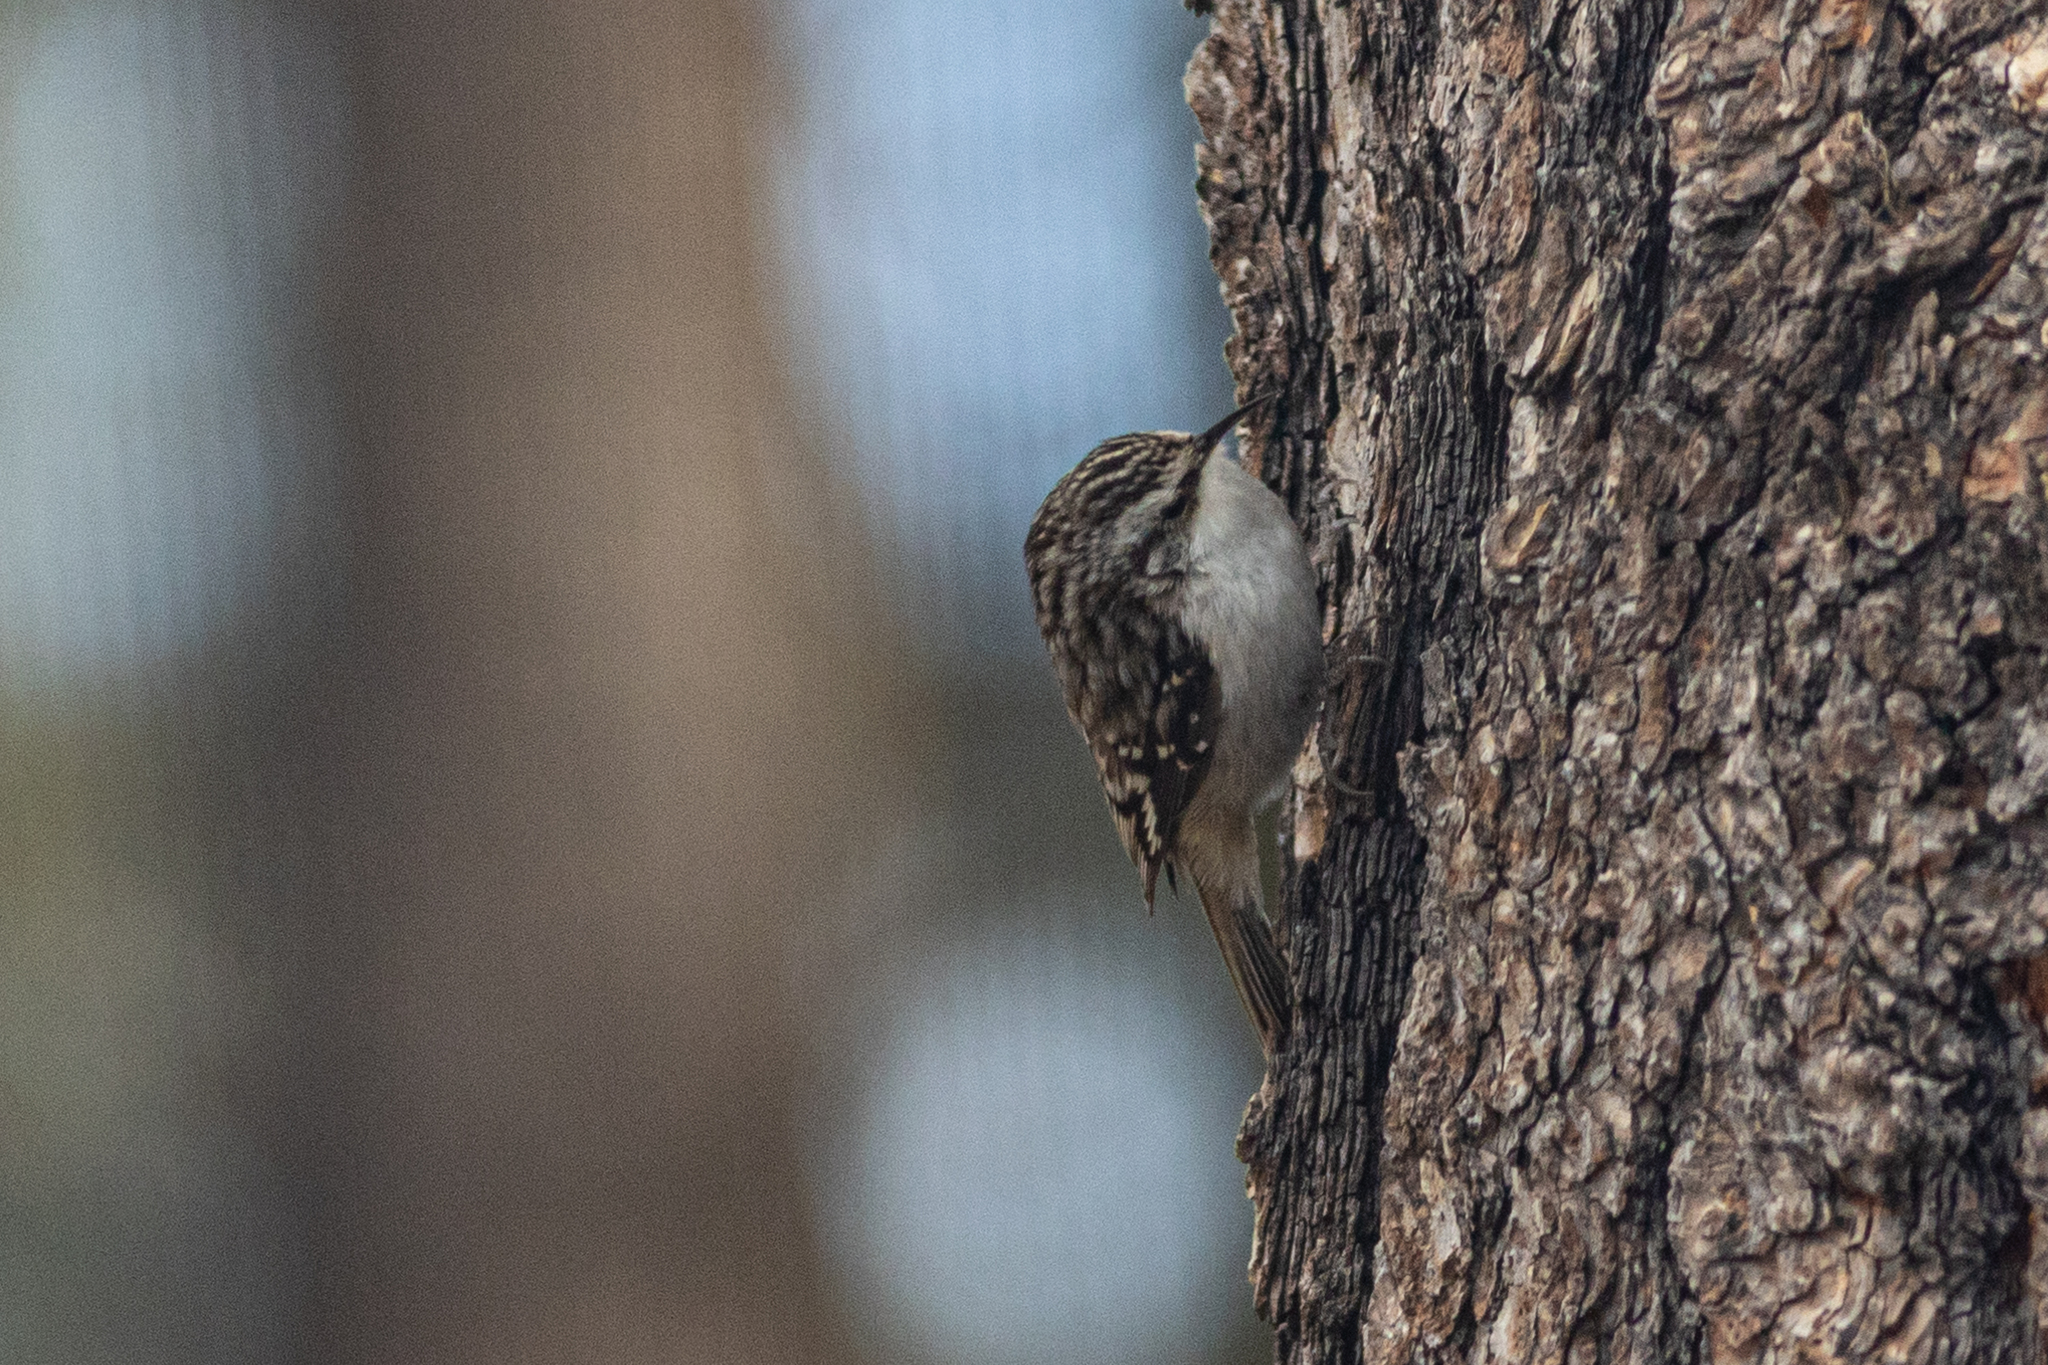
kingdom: Animalia
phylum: Chordata
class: Aves
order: Passeriformes
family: Certhiidae
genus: Certhia
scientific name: Certhia americana
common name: Brown creeper
